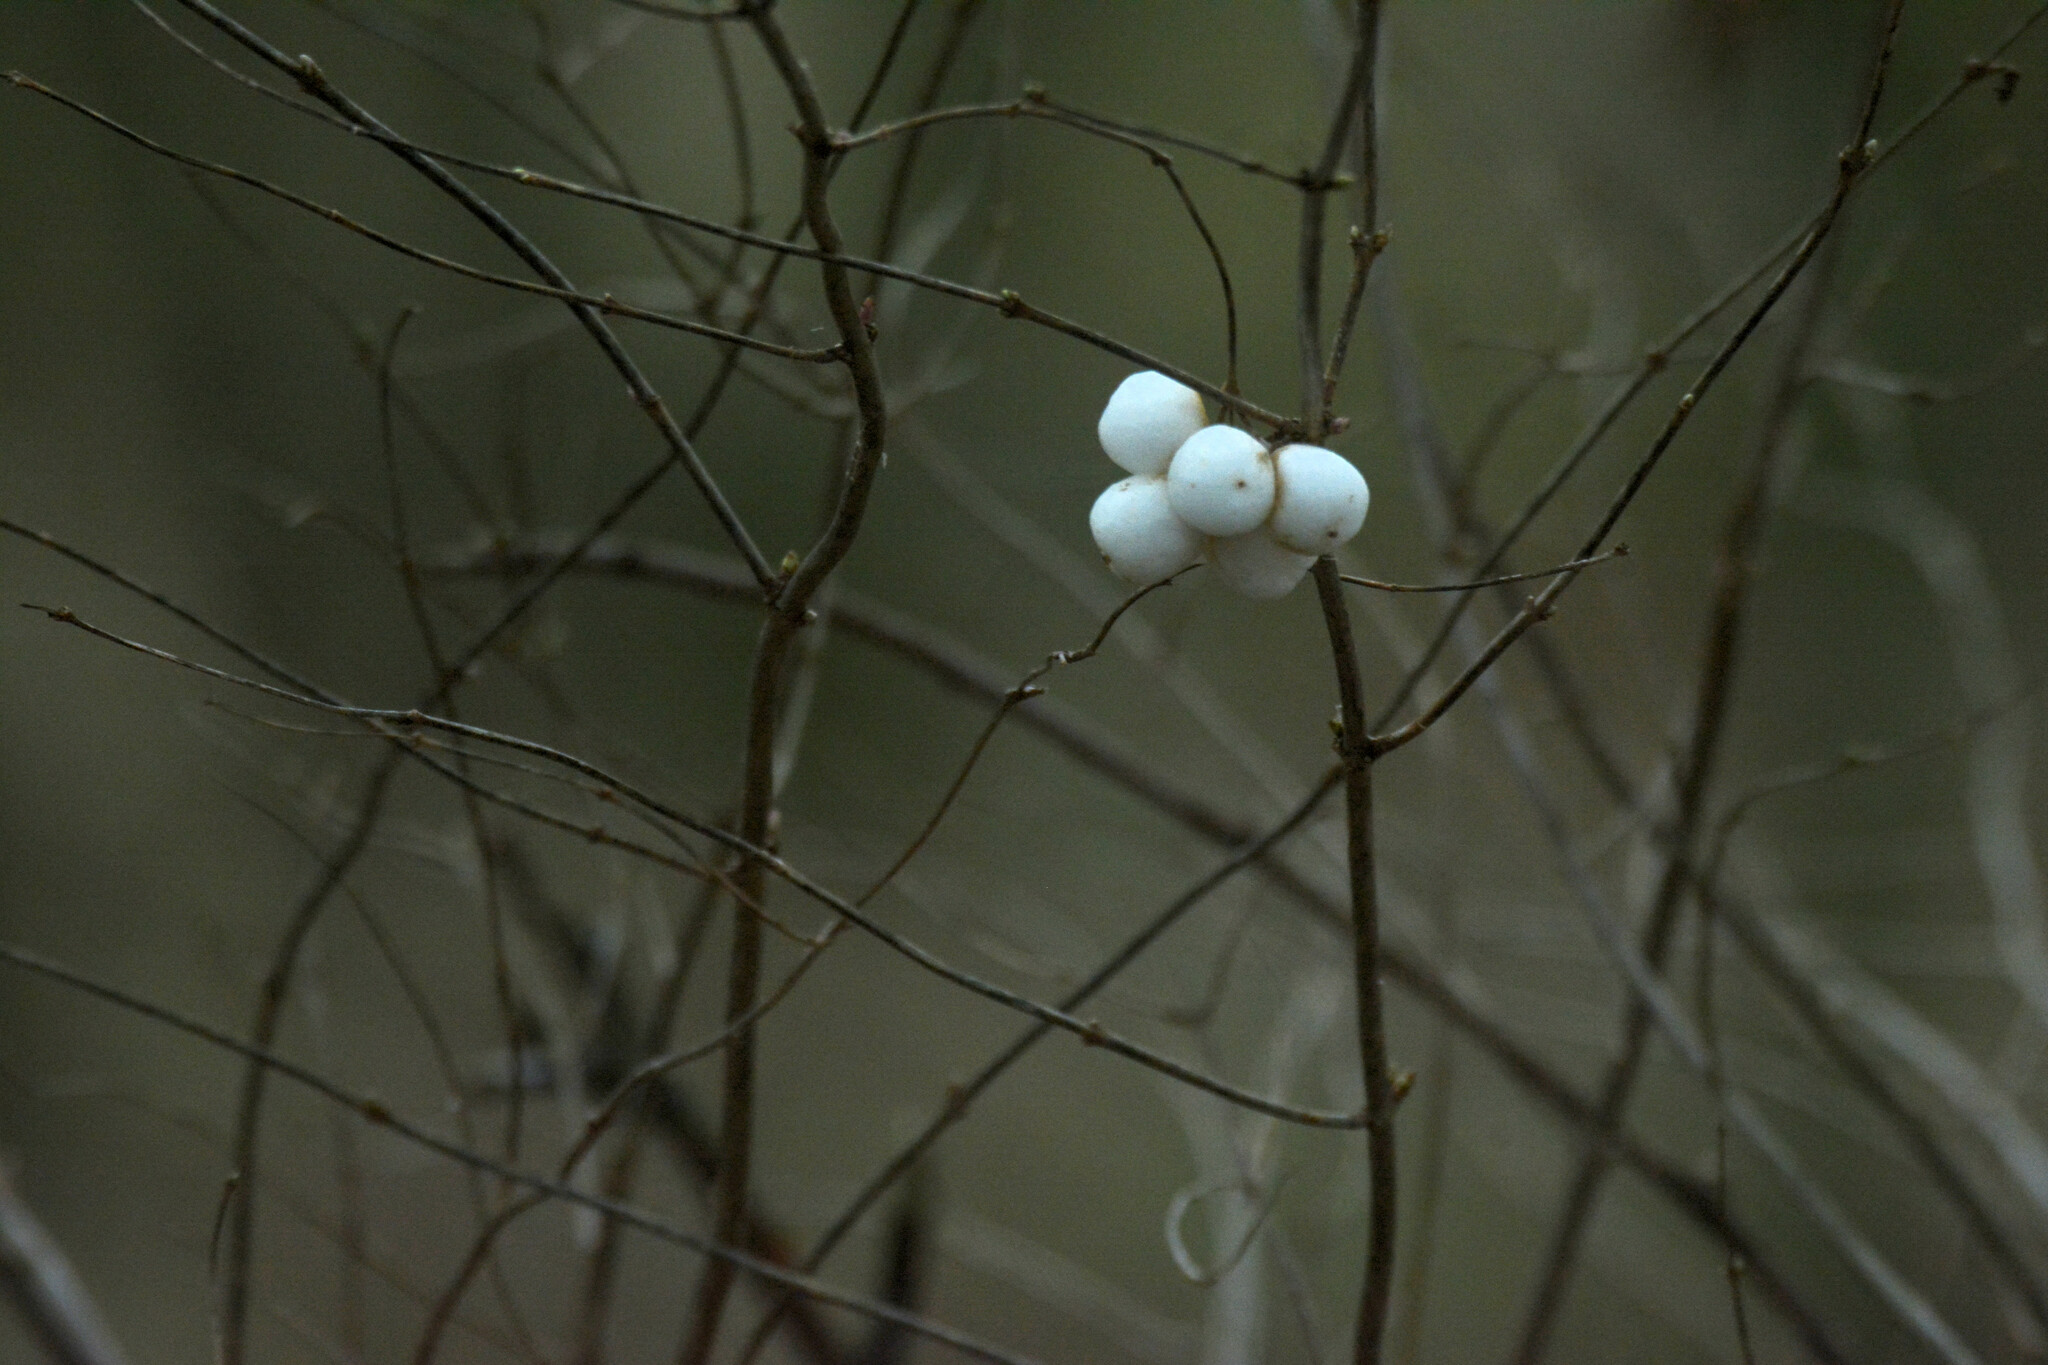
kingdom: Plantae
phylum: Tracheophyta
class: Magnoliopsida
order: Dipsacales
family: Caprifoliaceae
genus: Symphoricarpos
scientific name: Symphoricarpos albus
